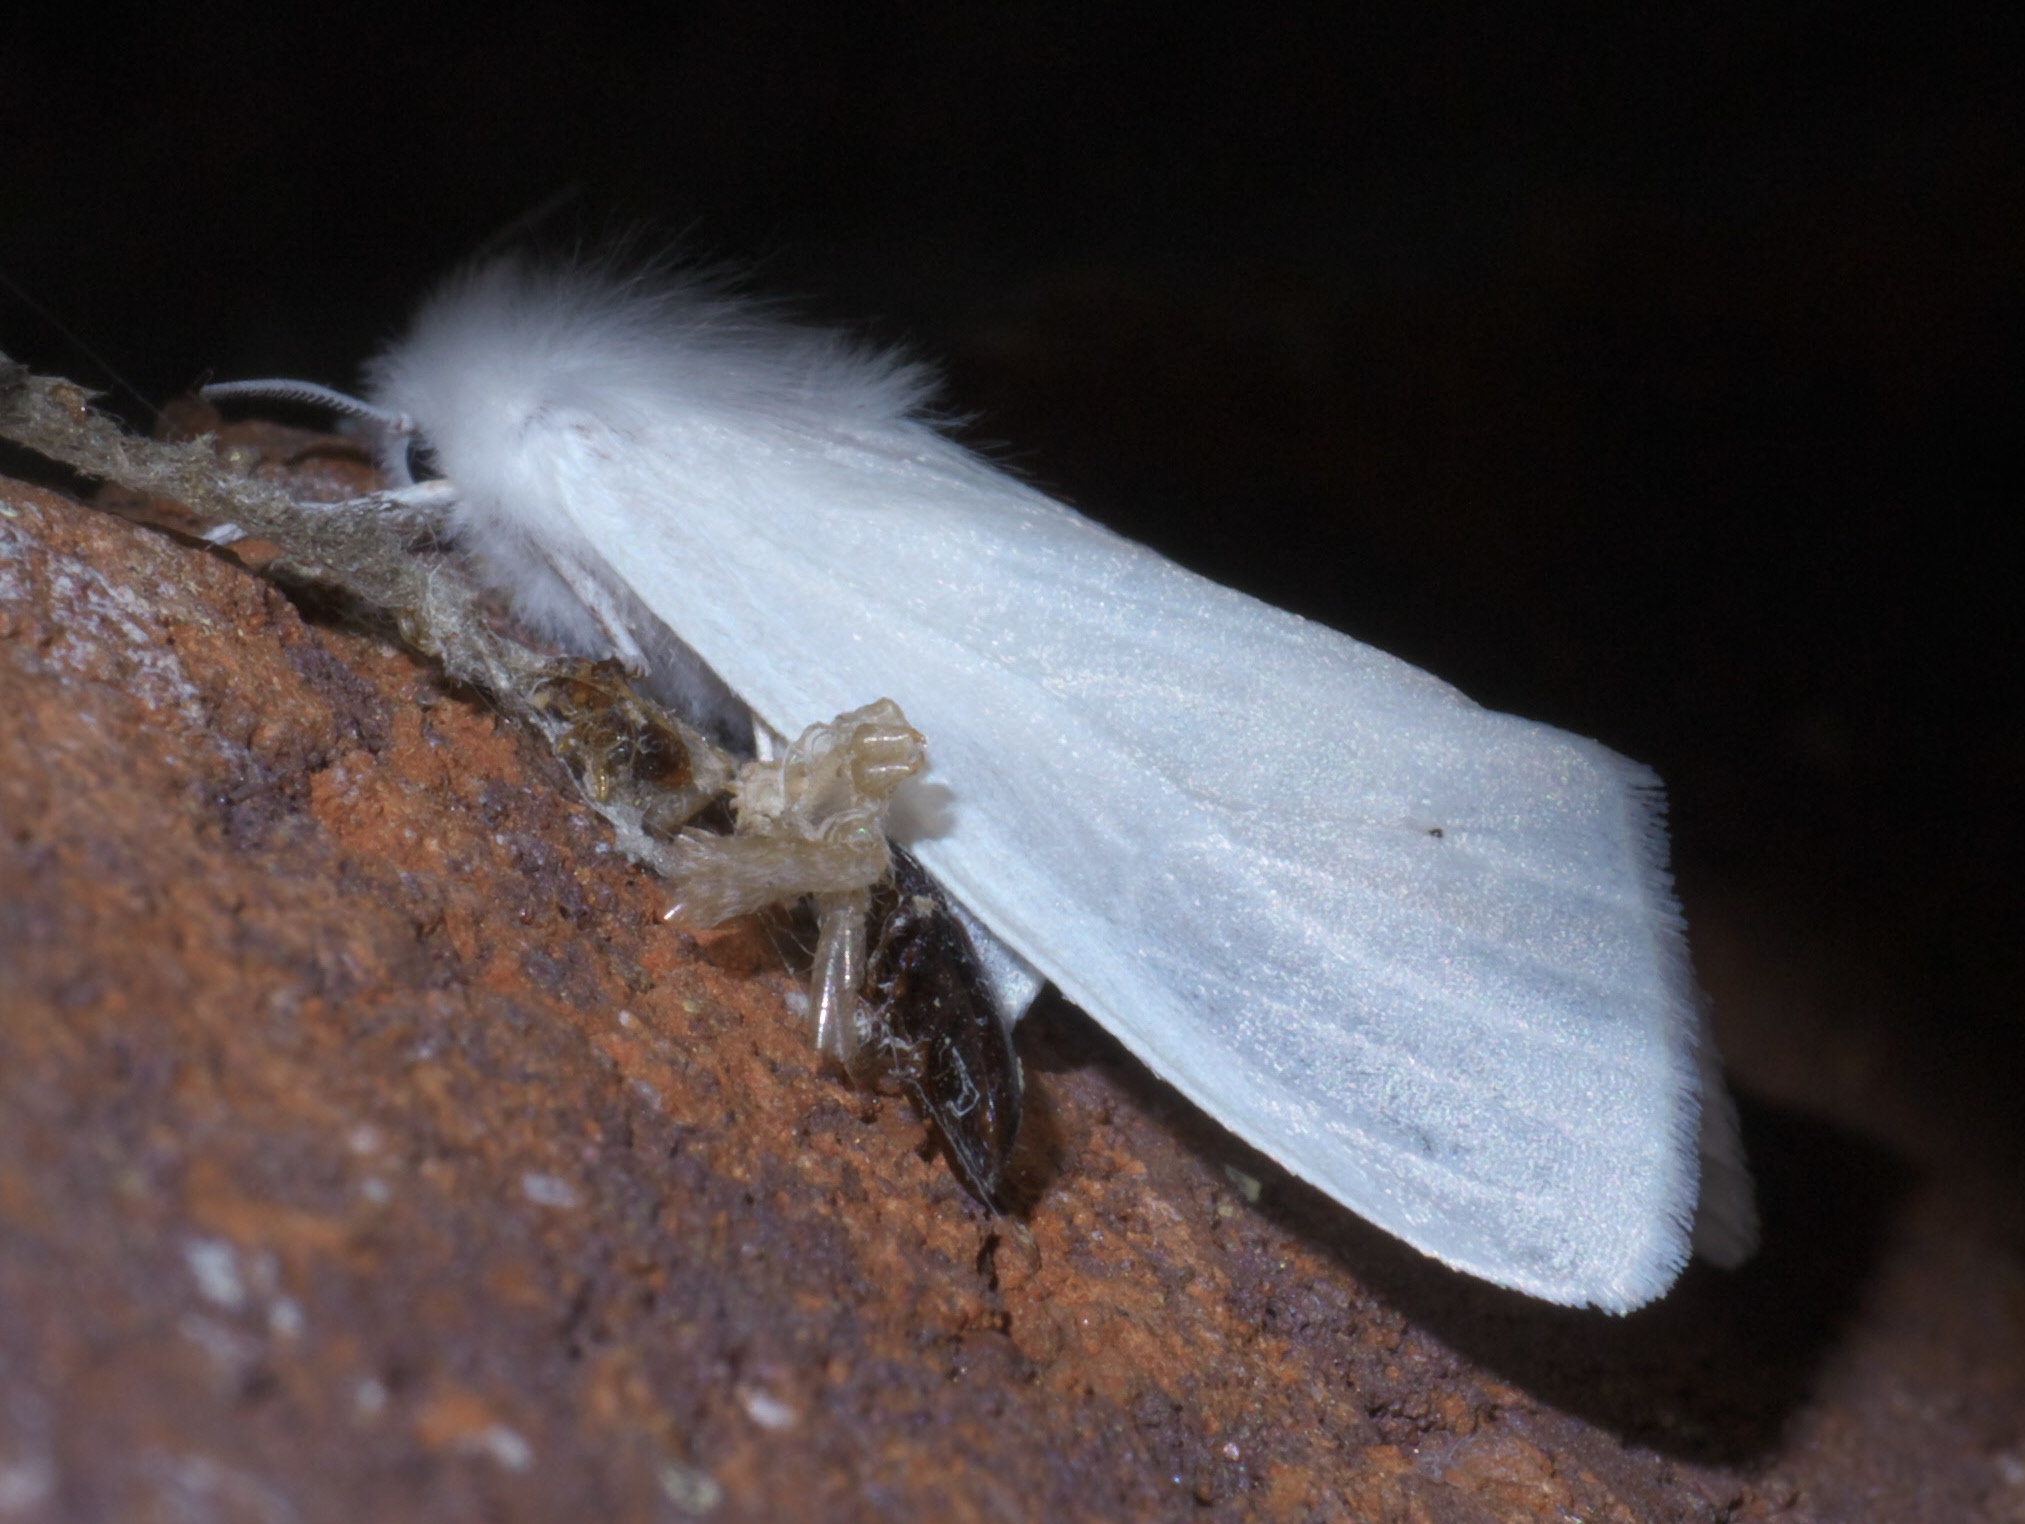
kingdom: Animalia
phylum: Arthropoda
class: Insecta
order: Lepidoptera
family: Erebidae
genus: Hyphantria
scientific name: Hyphantria cunea
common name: American white moth
